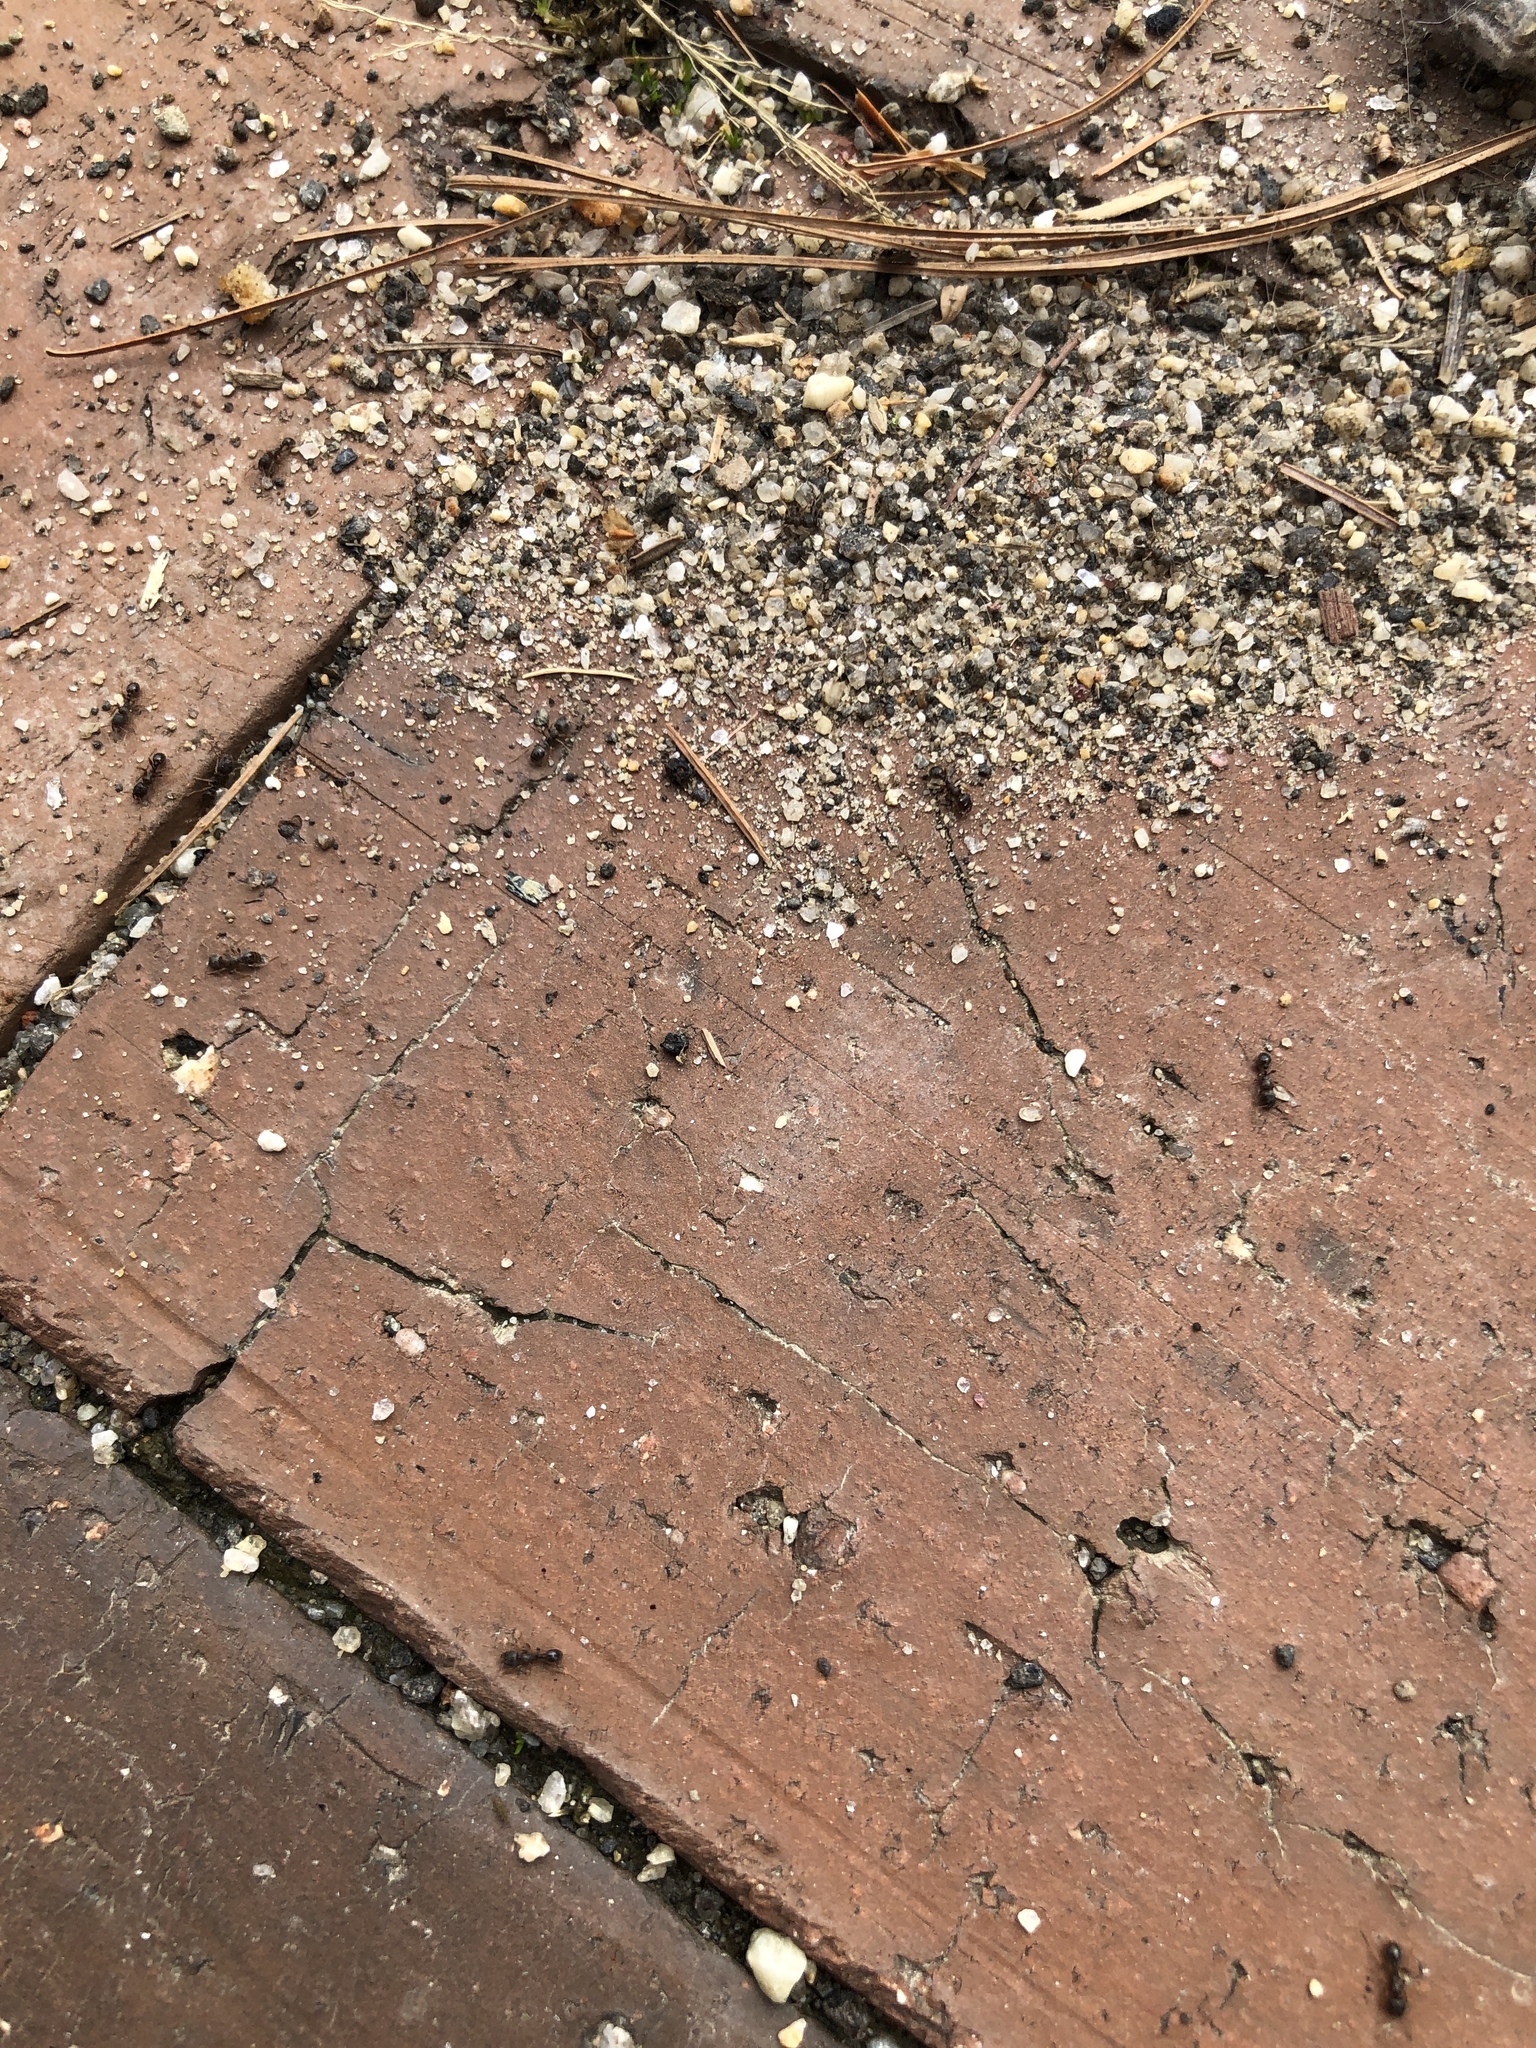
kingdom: Animalia
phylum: Arthropoda
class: Insecta
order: Hymenoptera
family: Formicidae
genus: Tetramorium
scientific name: Tetramorium immigrans
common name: Pavement ant
